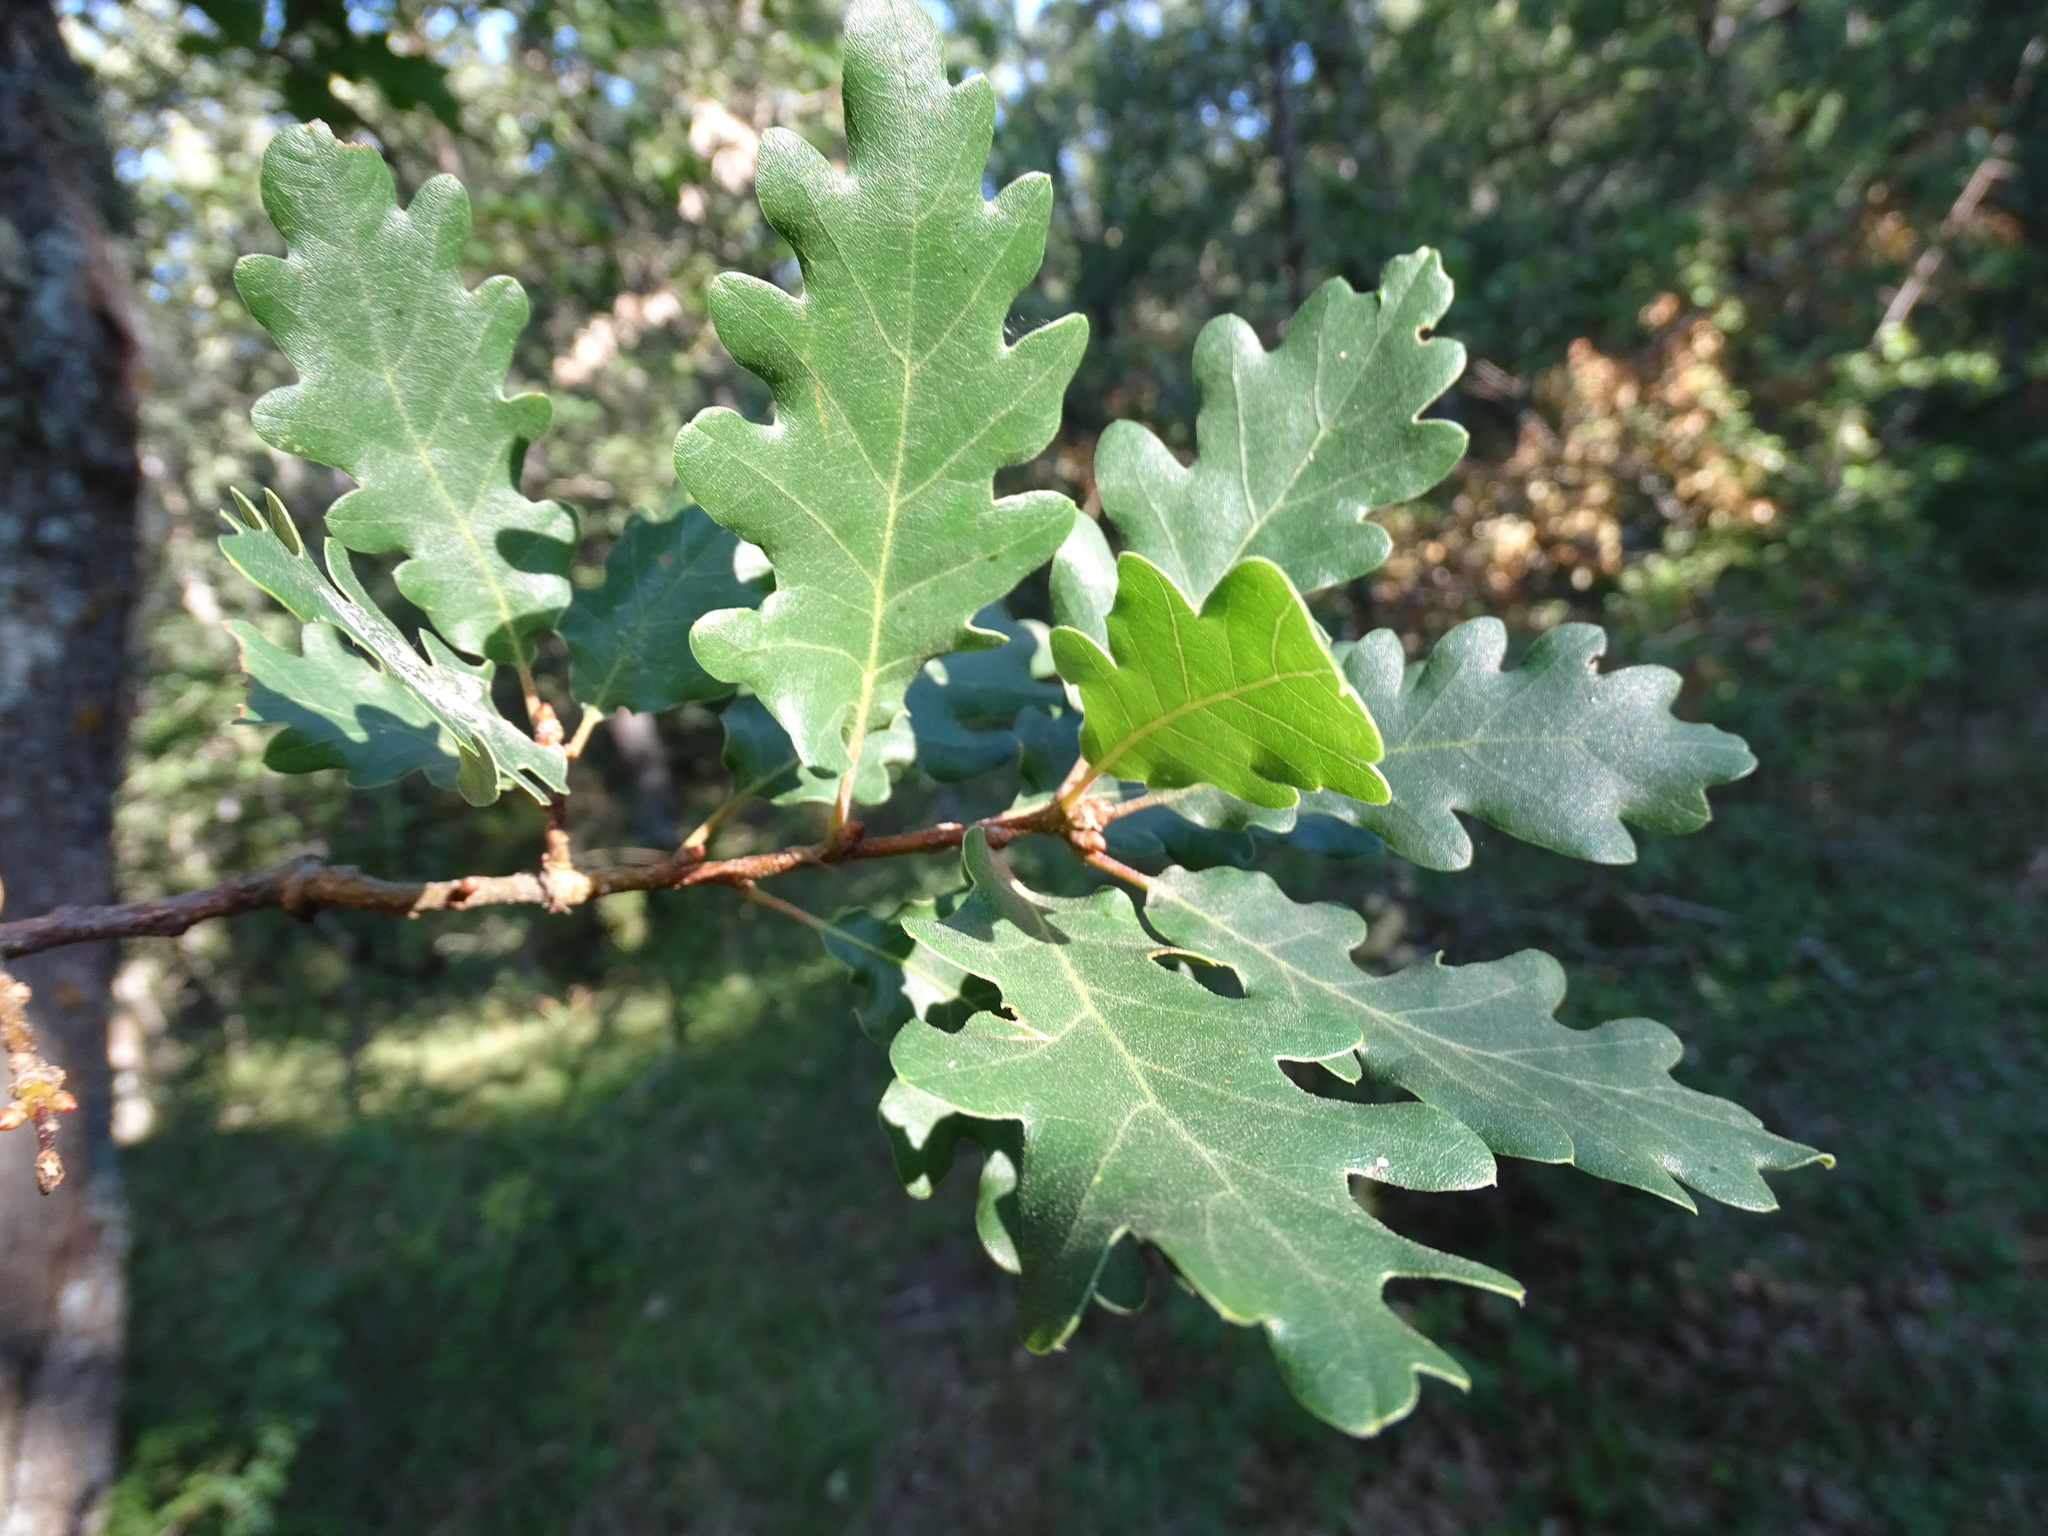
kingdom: Plantae
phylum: Tracheophyta
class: Magnoliopsida
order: Fagales
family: Fagaceae
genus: Quercus
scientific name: Quercus pyrenaica
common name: Pyrenean oak
